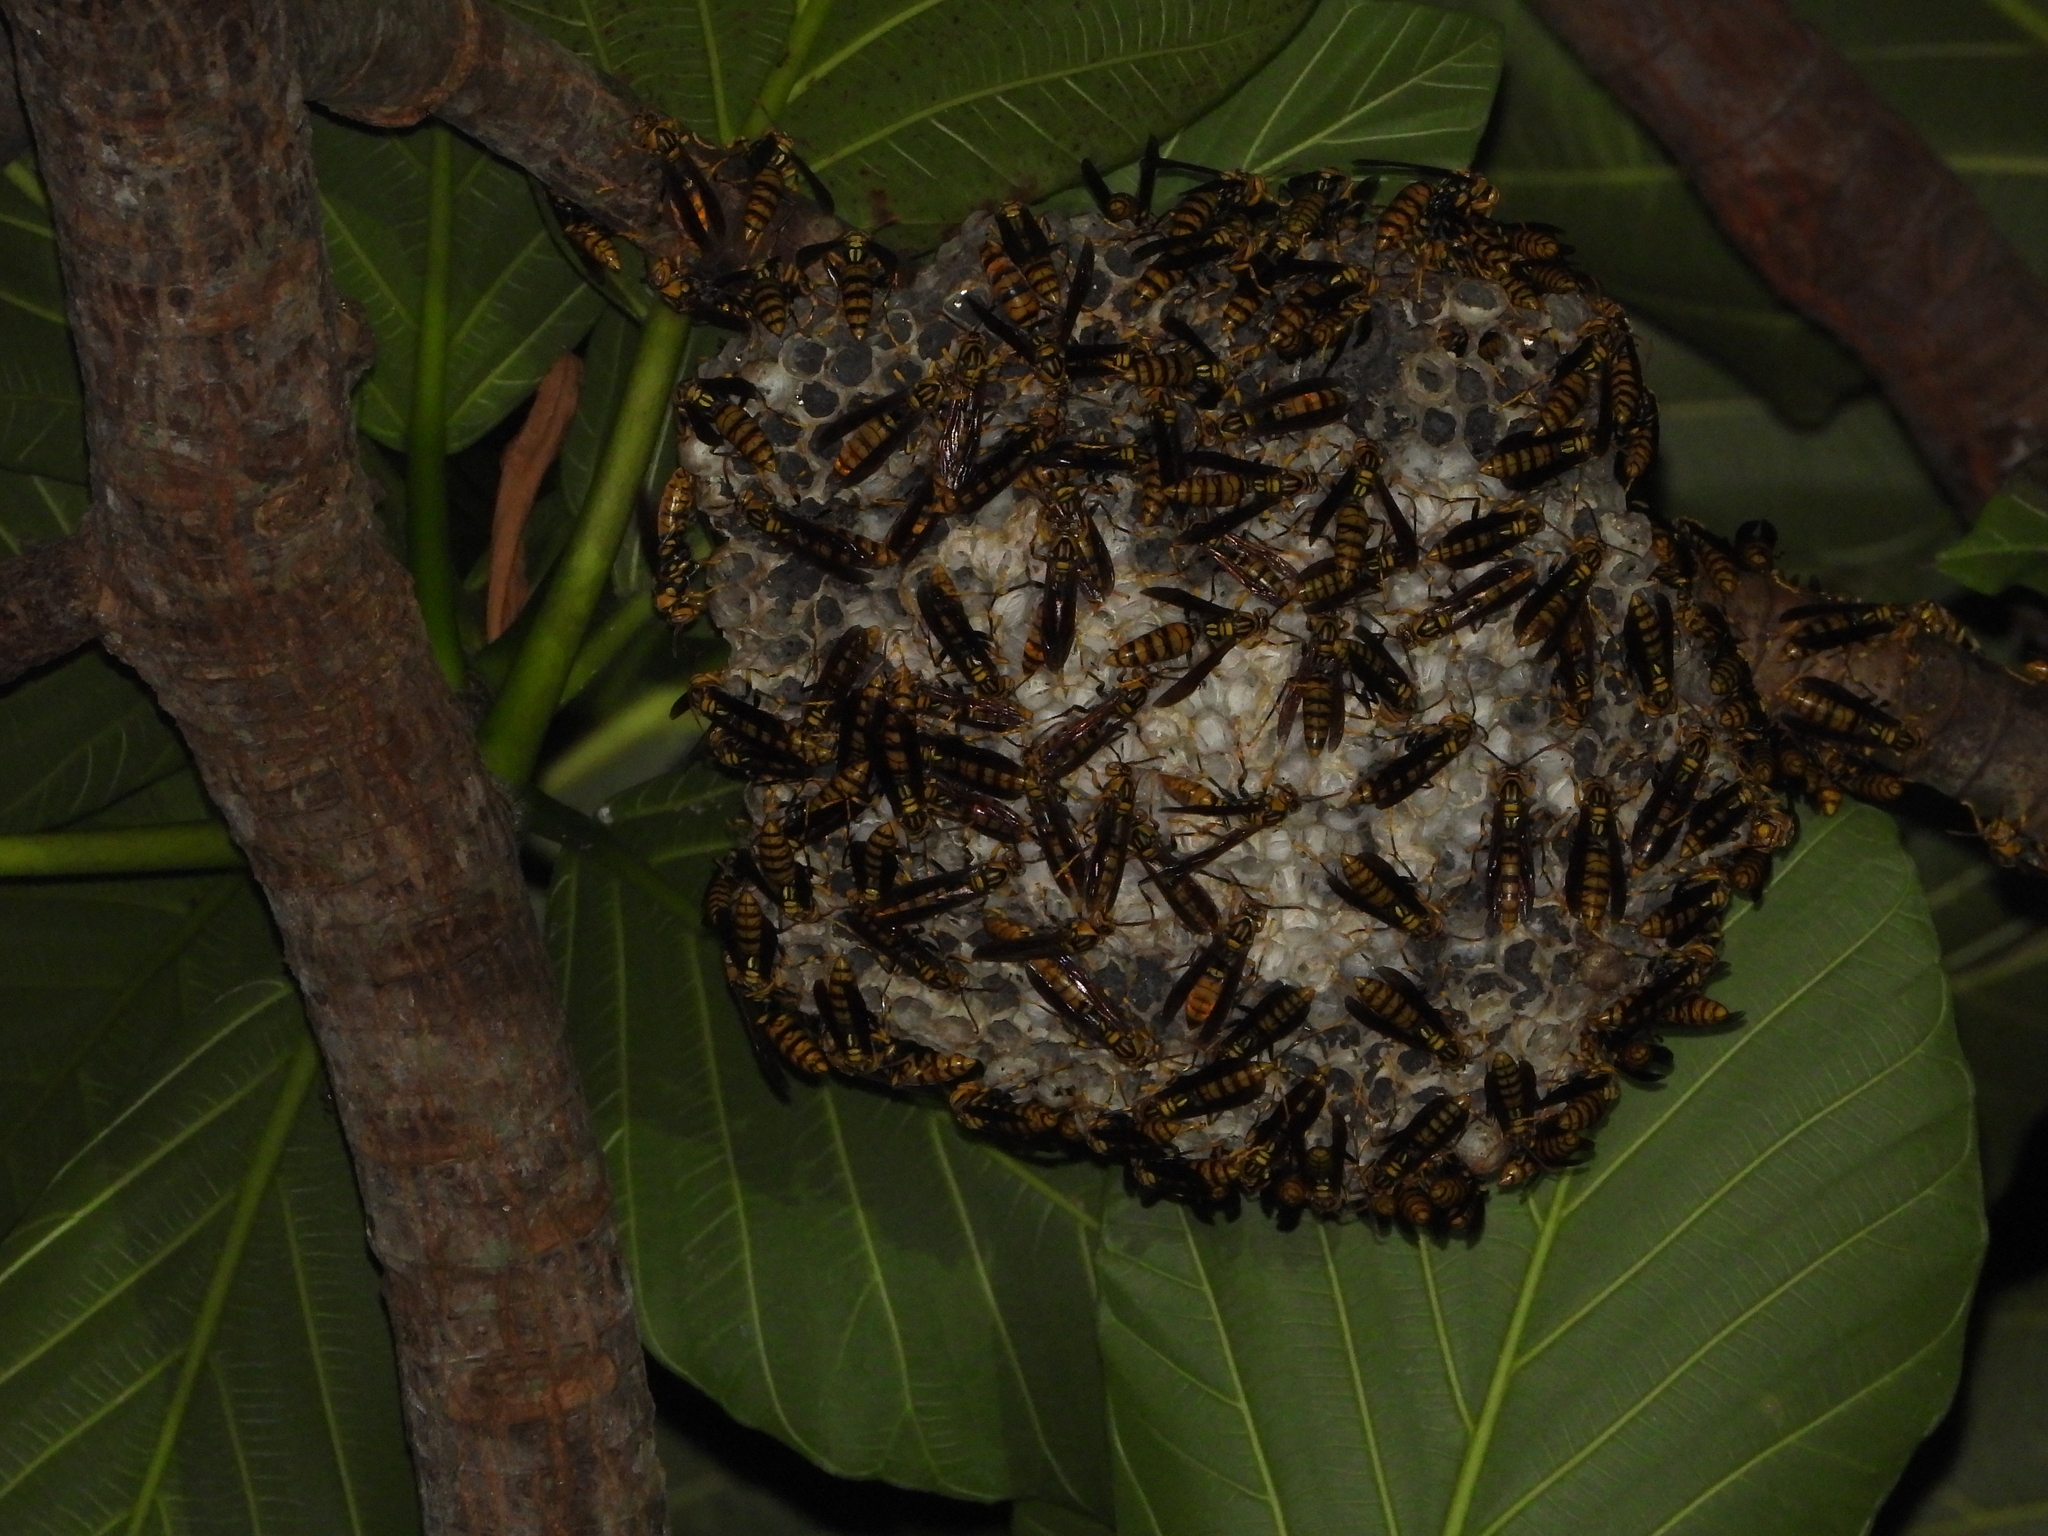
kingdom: Animalia
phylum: Arthropoda
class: Insecta
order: Hymenoptera
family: Eumenidae
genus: Polistes
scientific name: Polistes rothneyi
